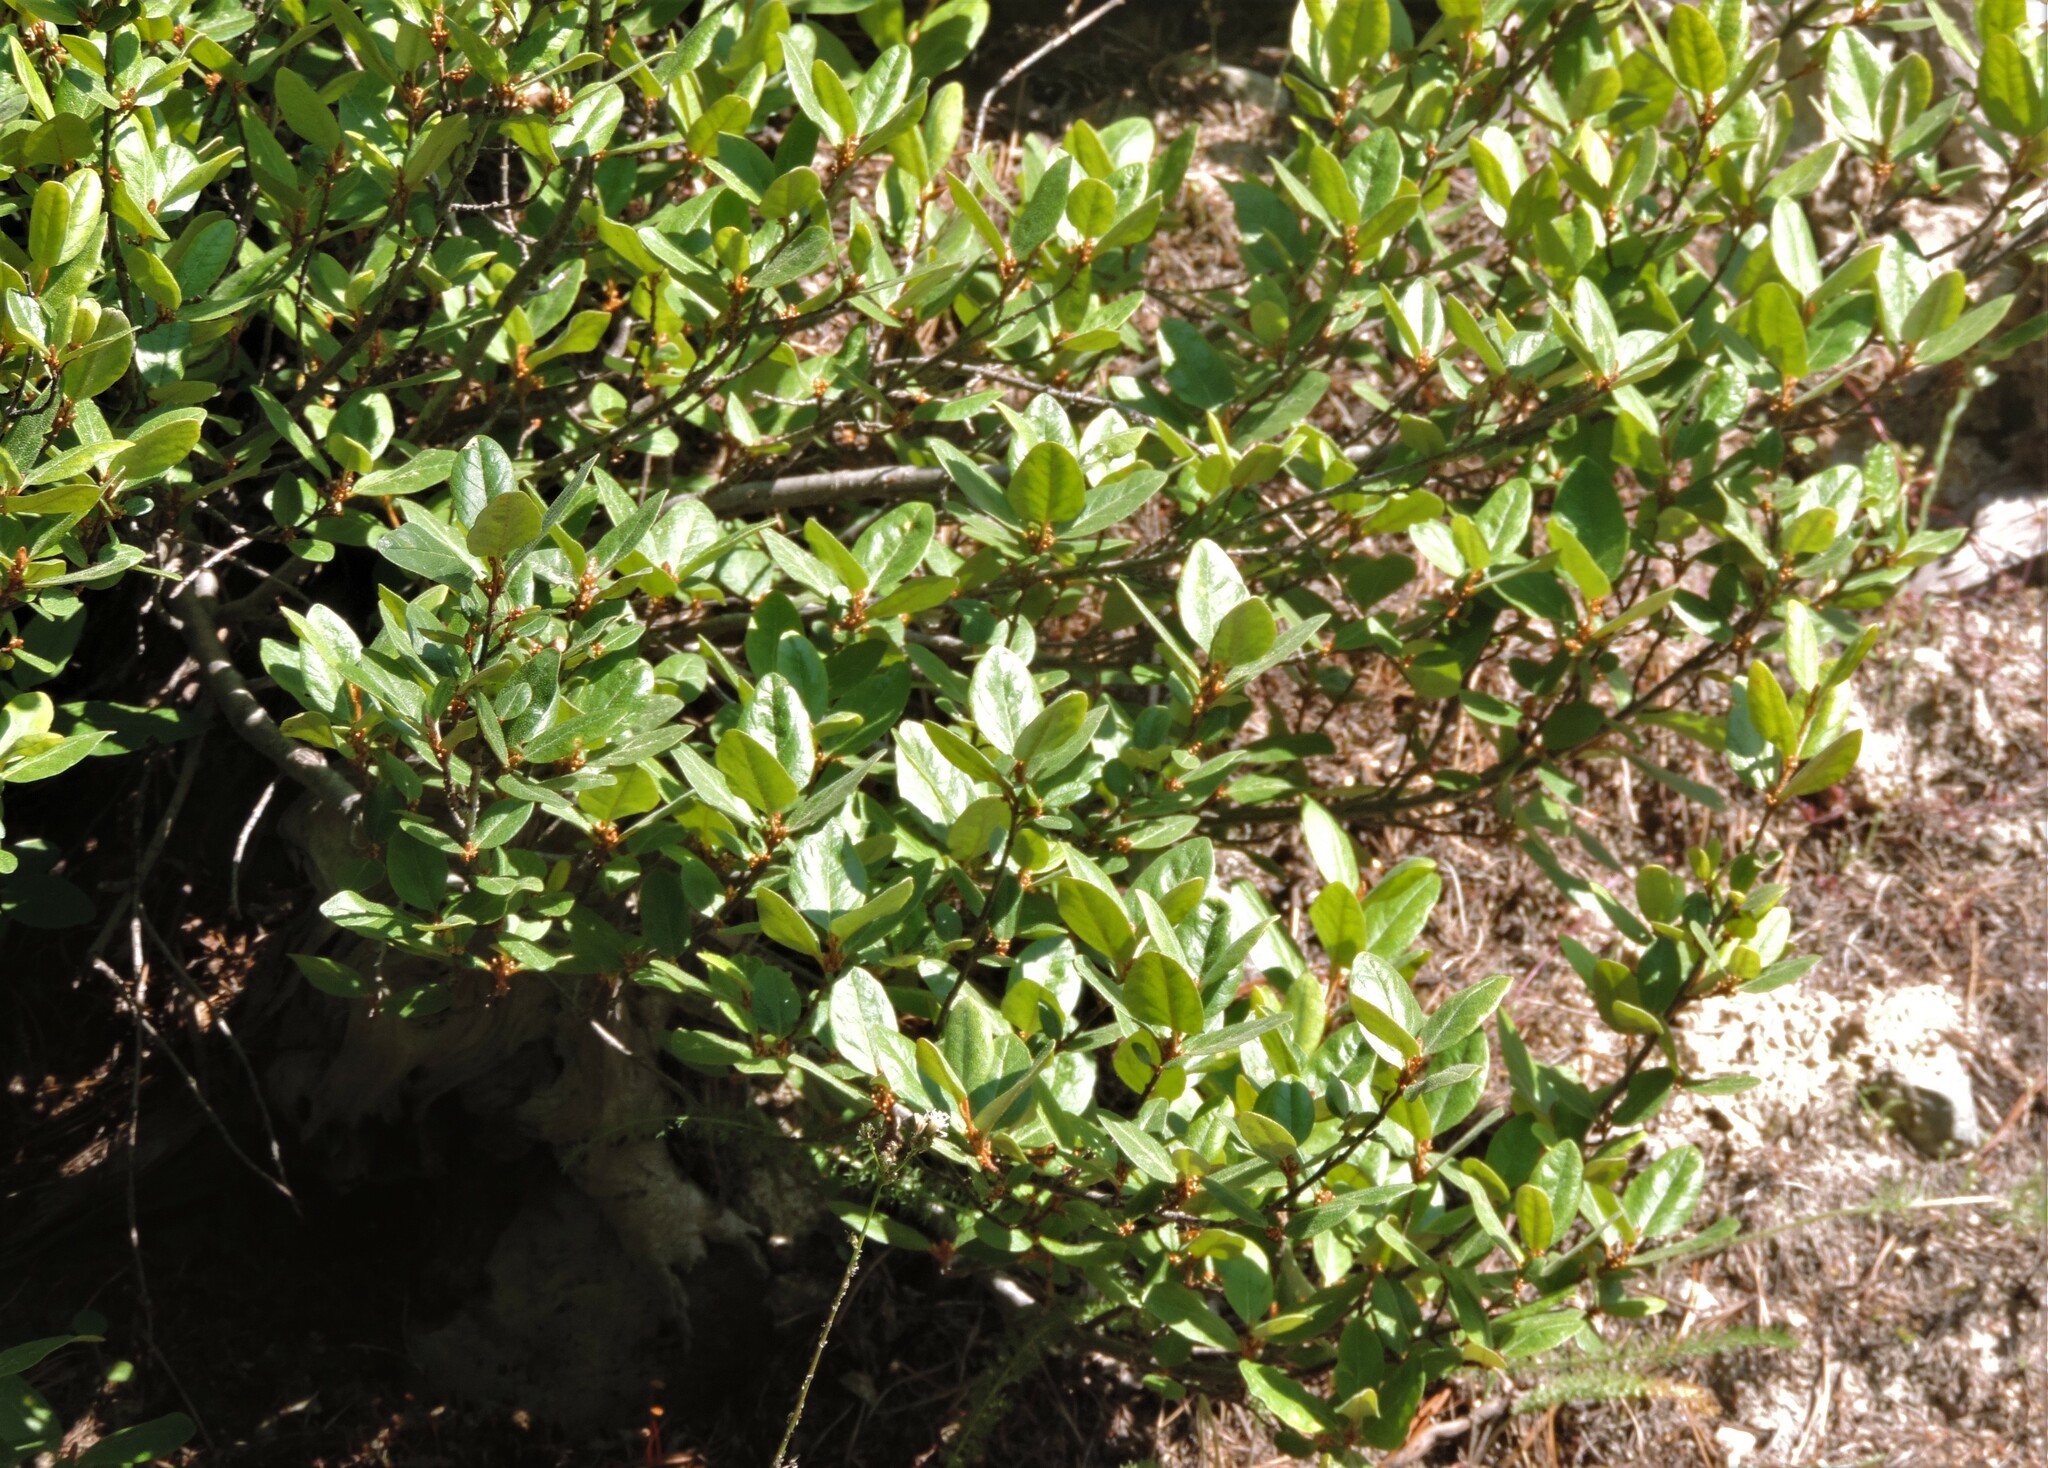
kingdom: Plantae
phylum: Tracheophyta
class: Magnoliopsida
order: Rosales
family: Elaeagnaceae
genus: Shepherdia
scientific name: Shepherdia canadensis
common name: Soapberry
